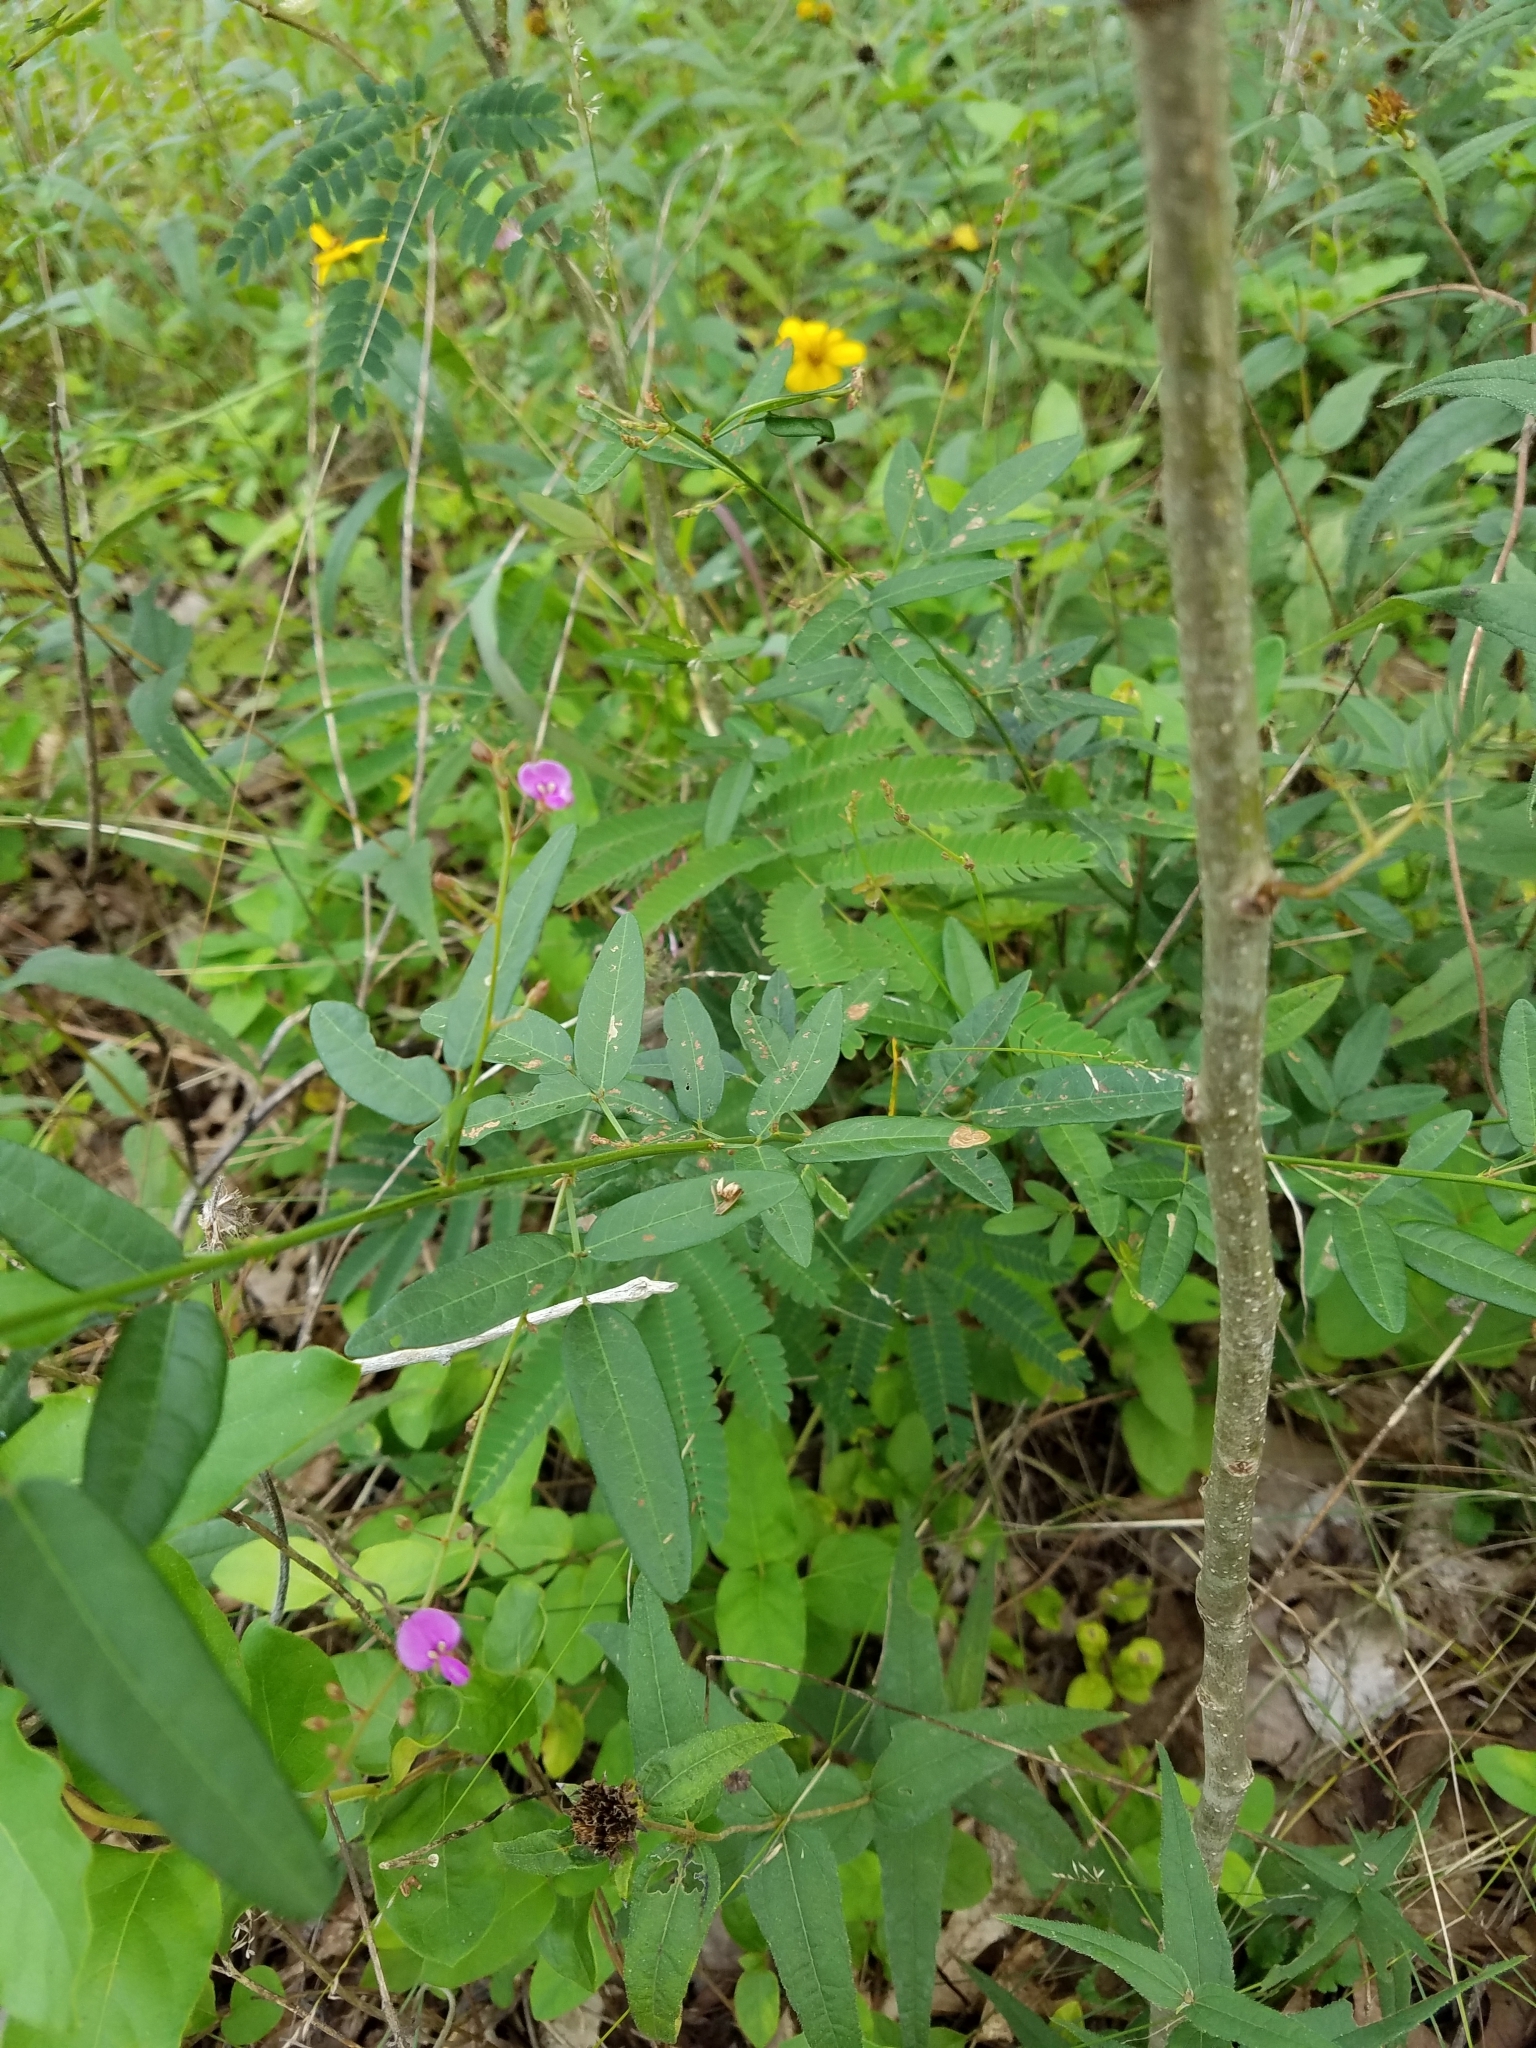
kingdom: Plantae
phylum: Tracheophyta
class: Magnoliopsida
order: Fabales
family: Fabaceae
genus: Desmodium
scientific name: Desmodium paniculatum
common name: Panicled tick-clover
